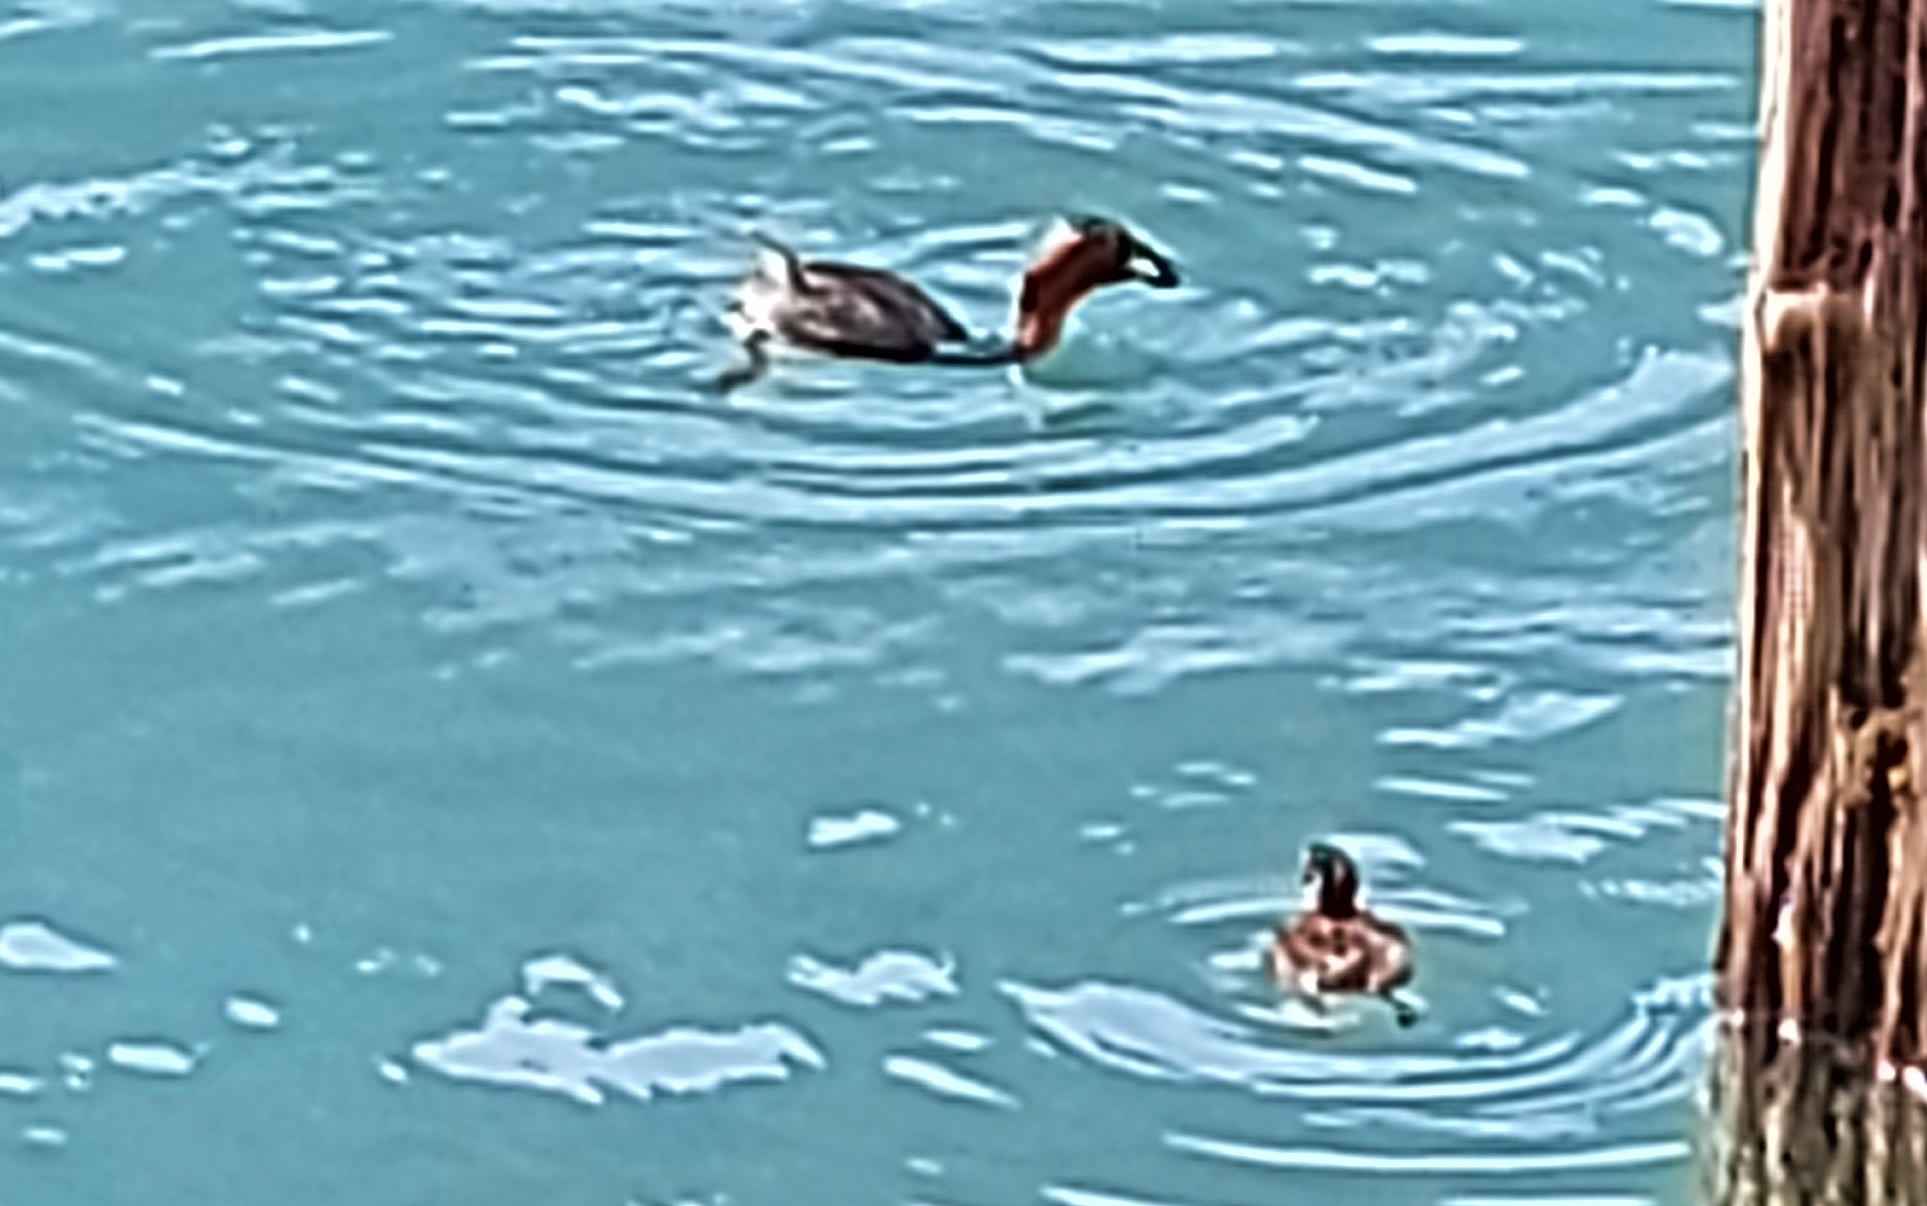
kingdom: Animalia
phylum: Chordata
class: Aves
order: Podicipediformes
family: Podicipedidae
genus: Tachybaptus
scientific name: Tachybaptus ruficollis
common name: Little grebe
